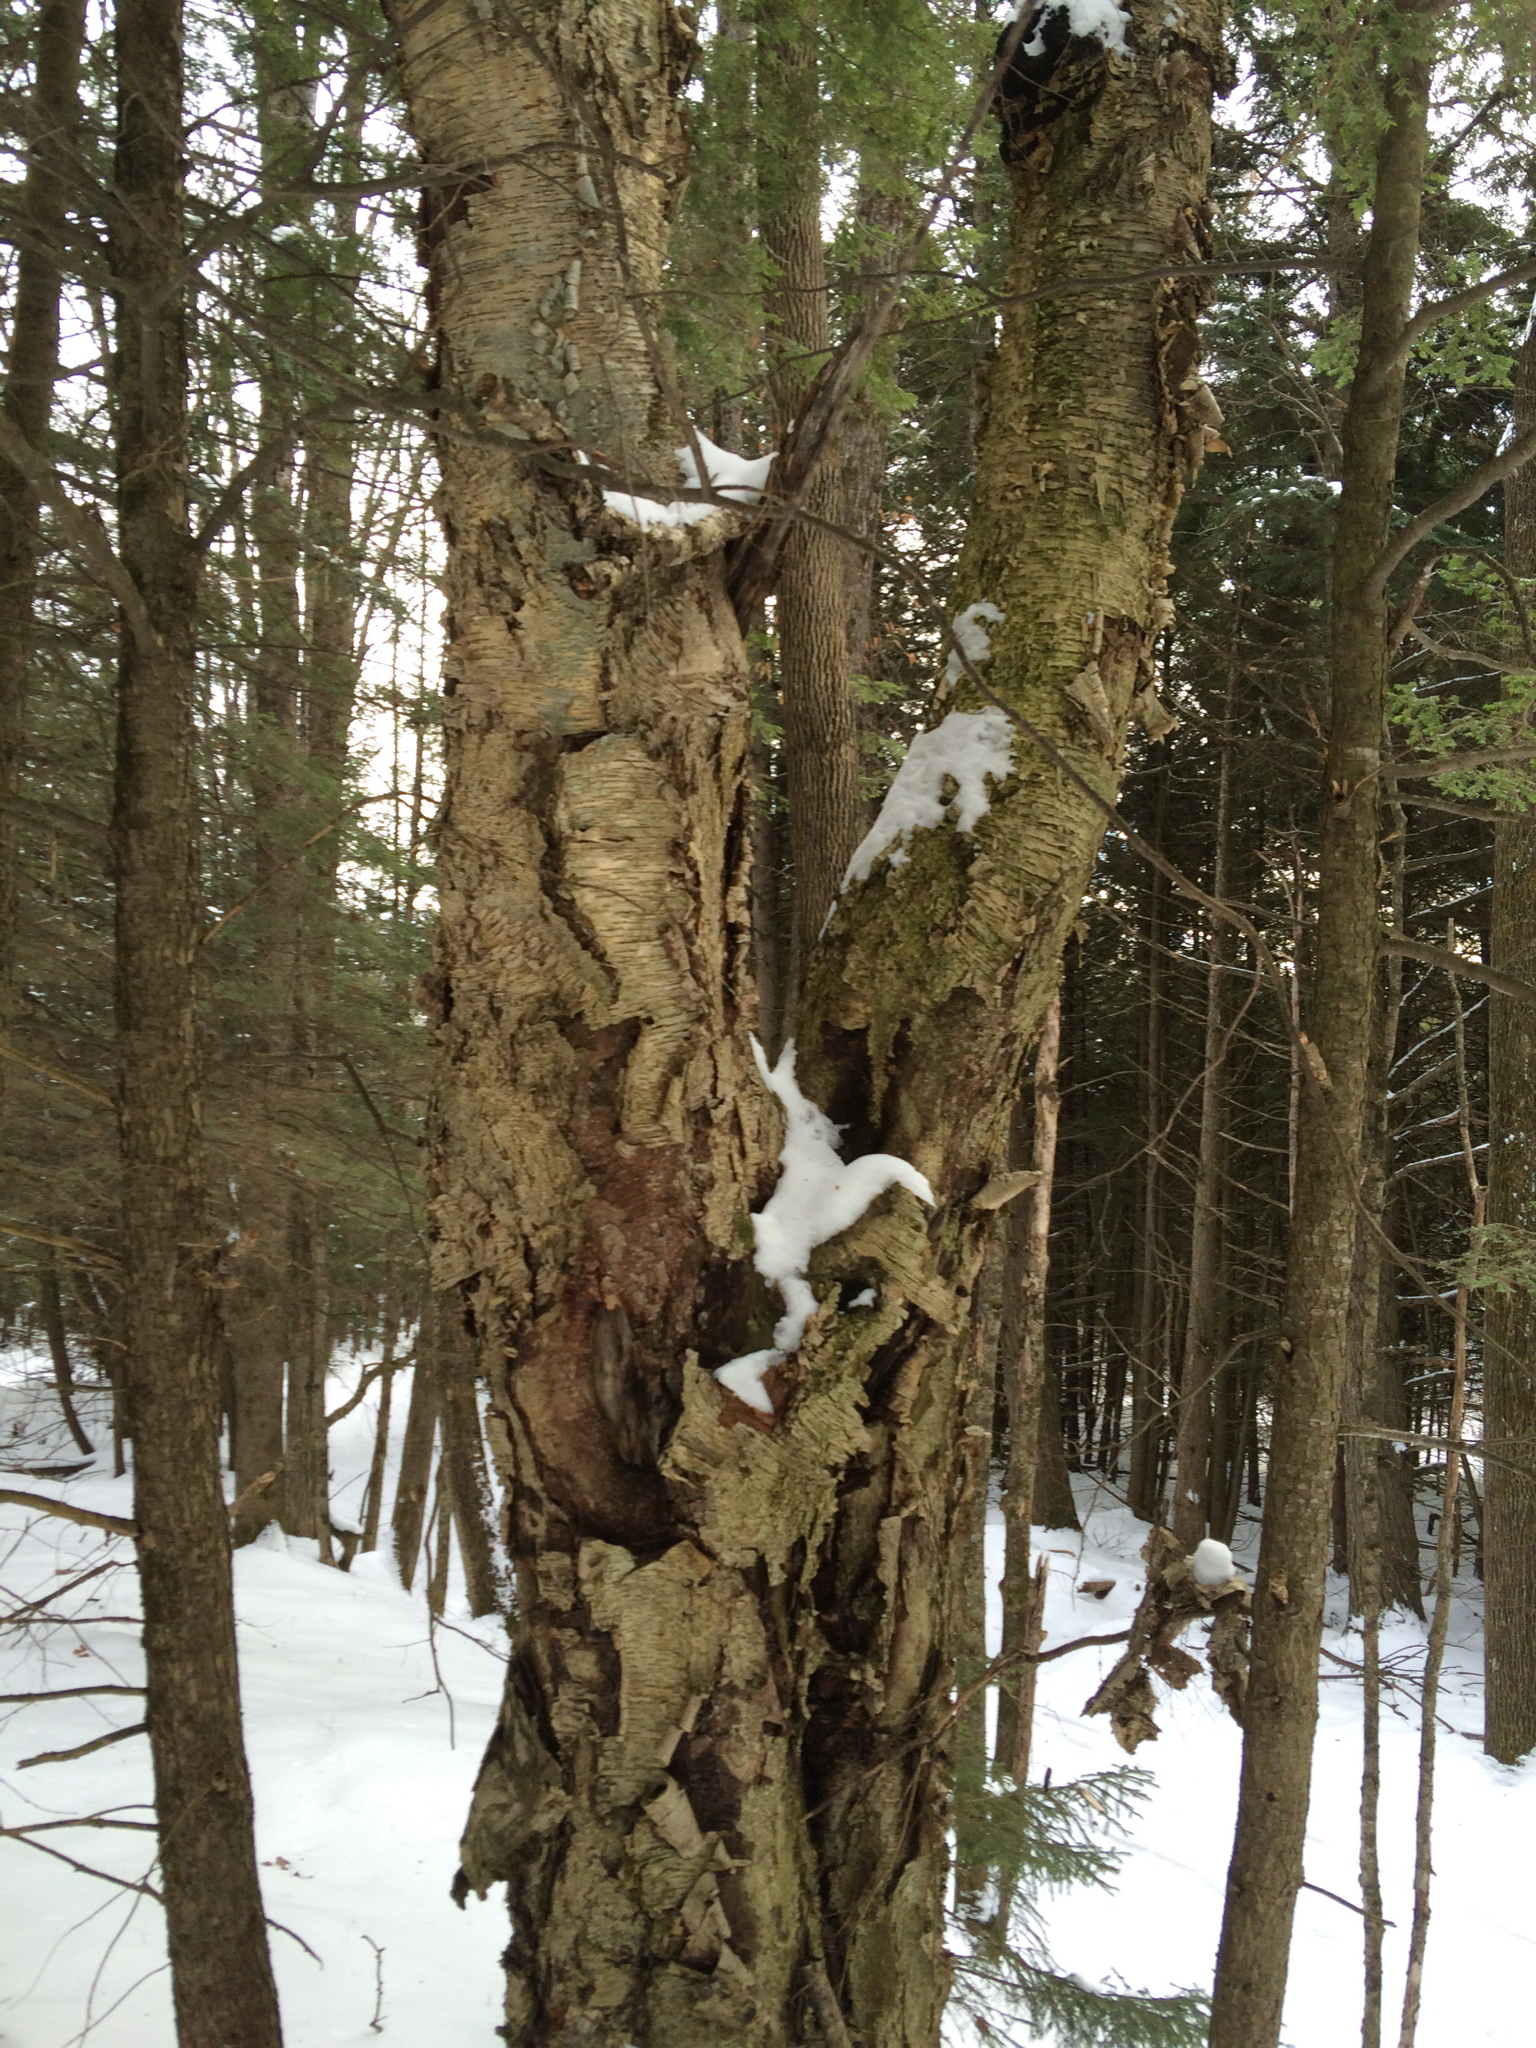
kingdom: Plantae
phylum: Tracheophyta
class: Magnoliopsida
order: Fagales
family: Betulaceae
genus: Betula
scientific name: Betula alleghaniensis
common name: Yellow birch
